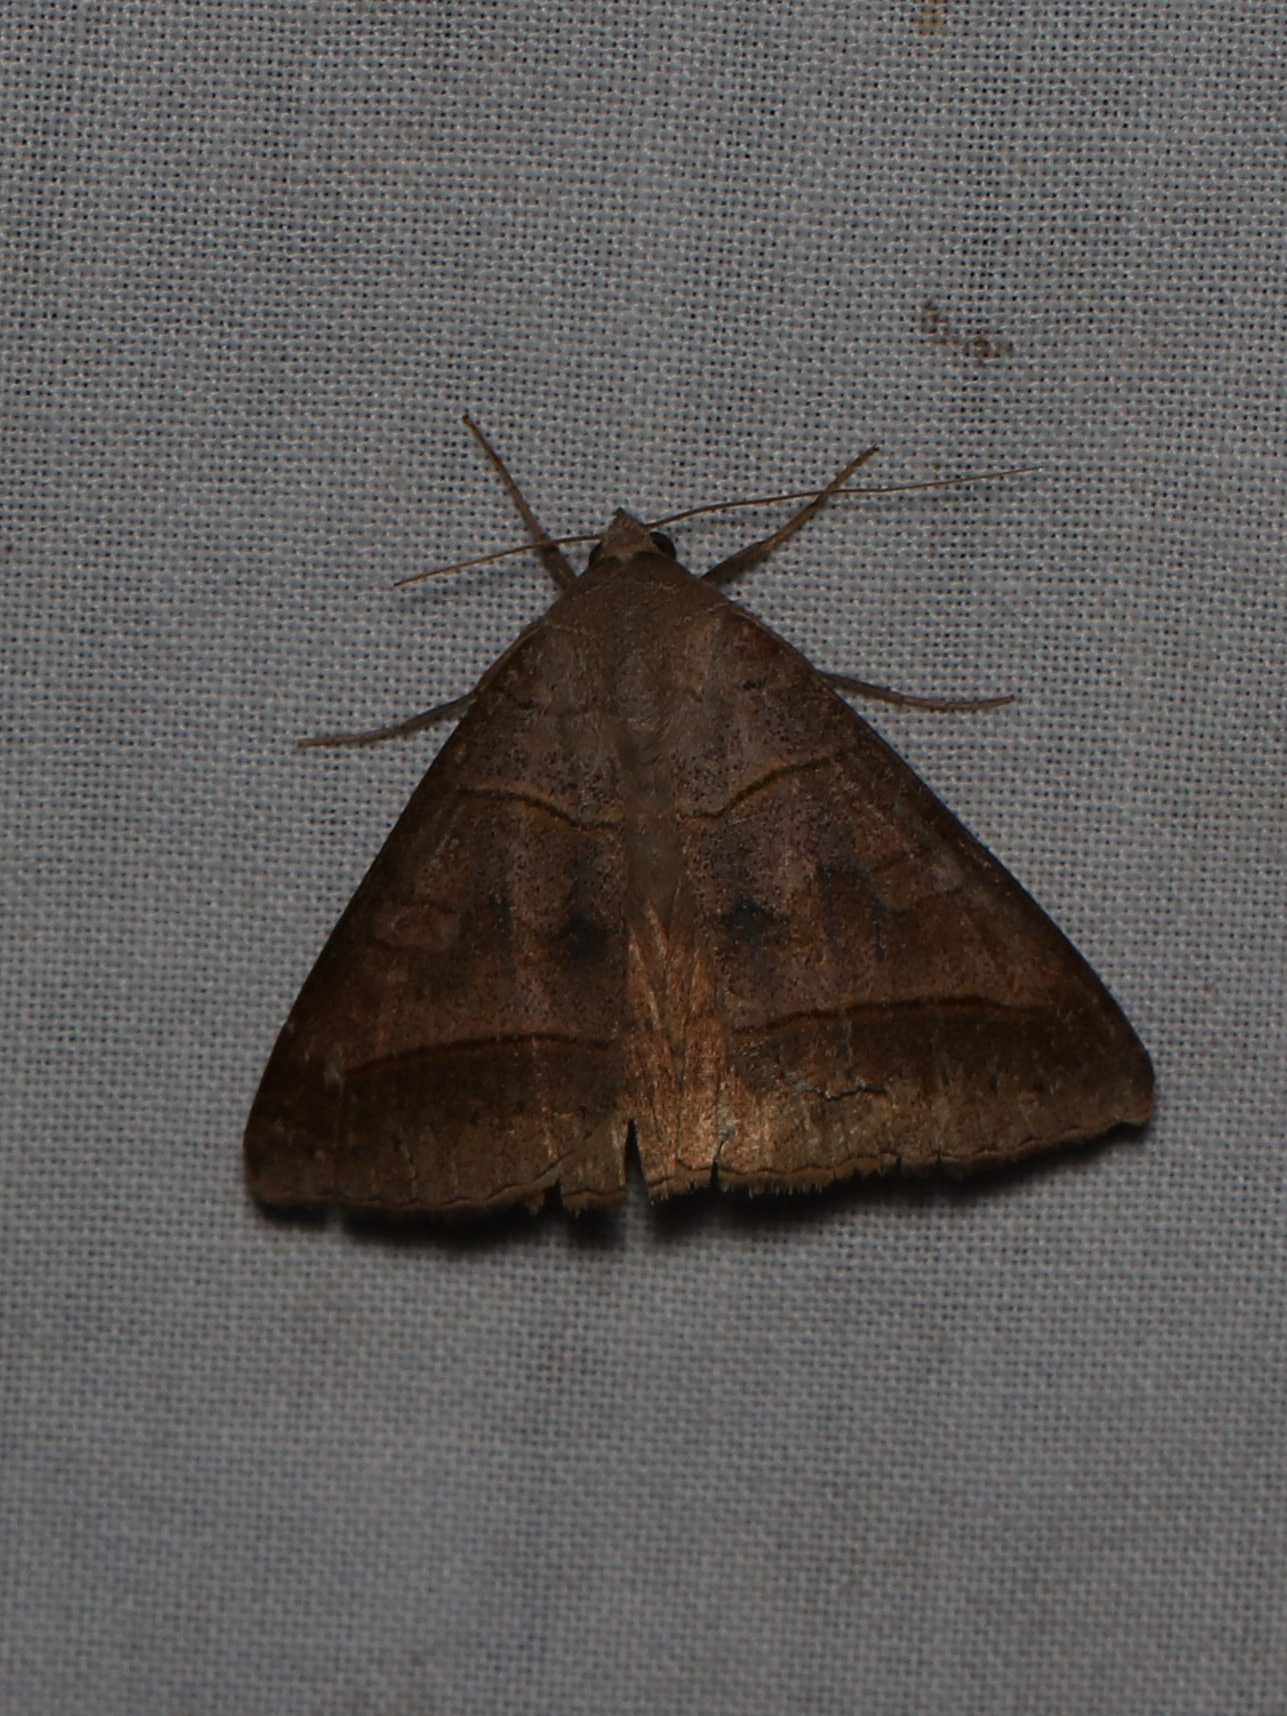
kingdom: Animalia
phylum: Arthropoda
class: Insecta
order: Lepidoptera
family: Erebidae
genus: Mocis
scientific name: Mocis texana
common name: Texas mocis moth
